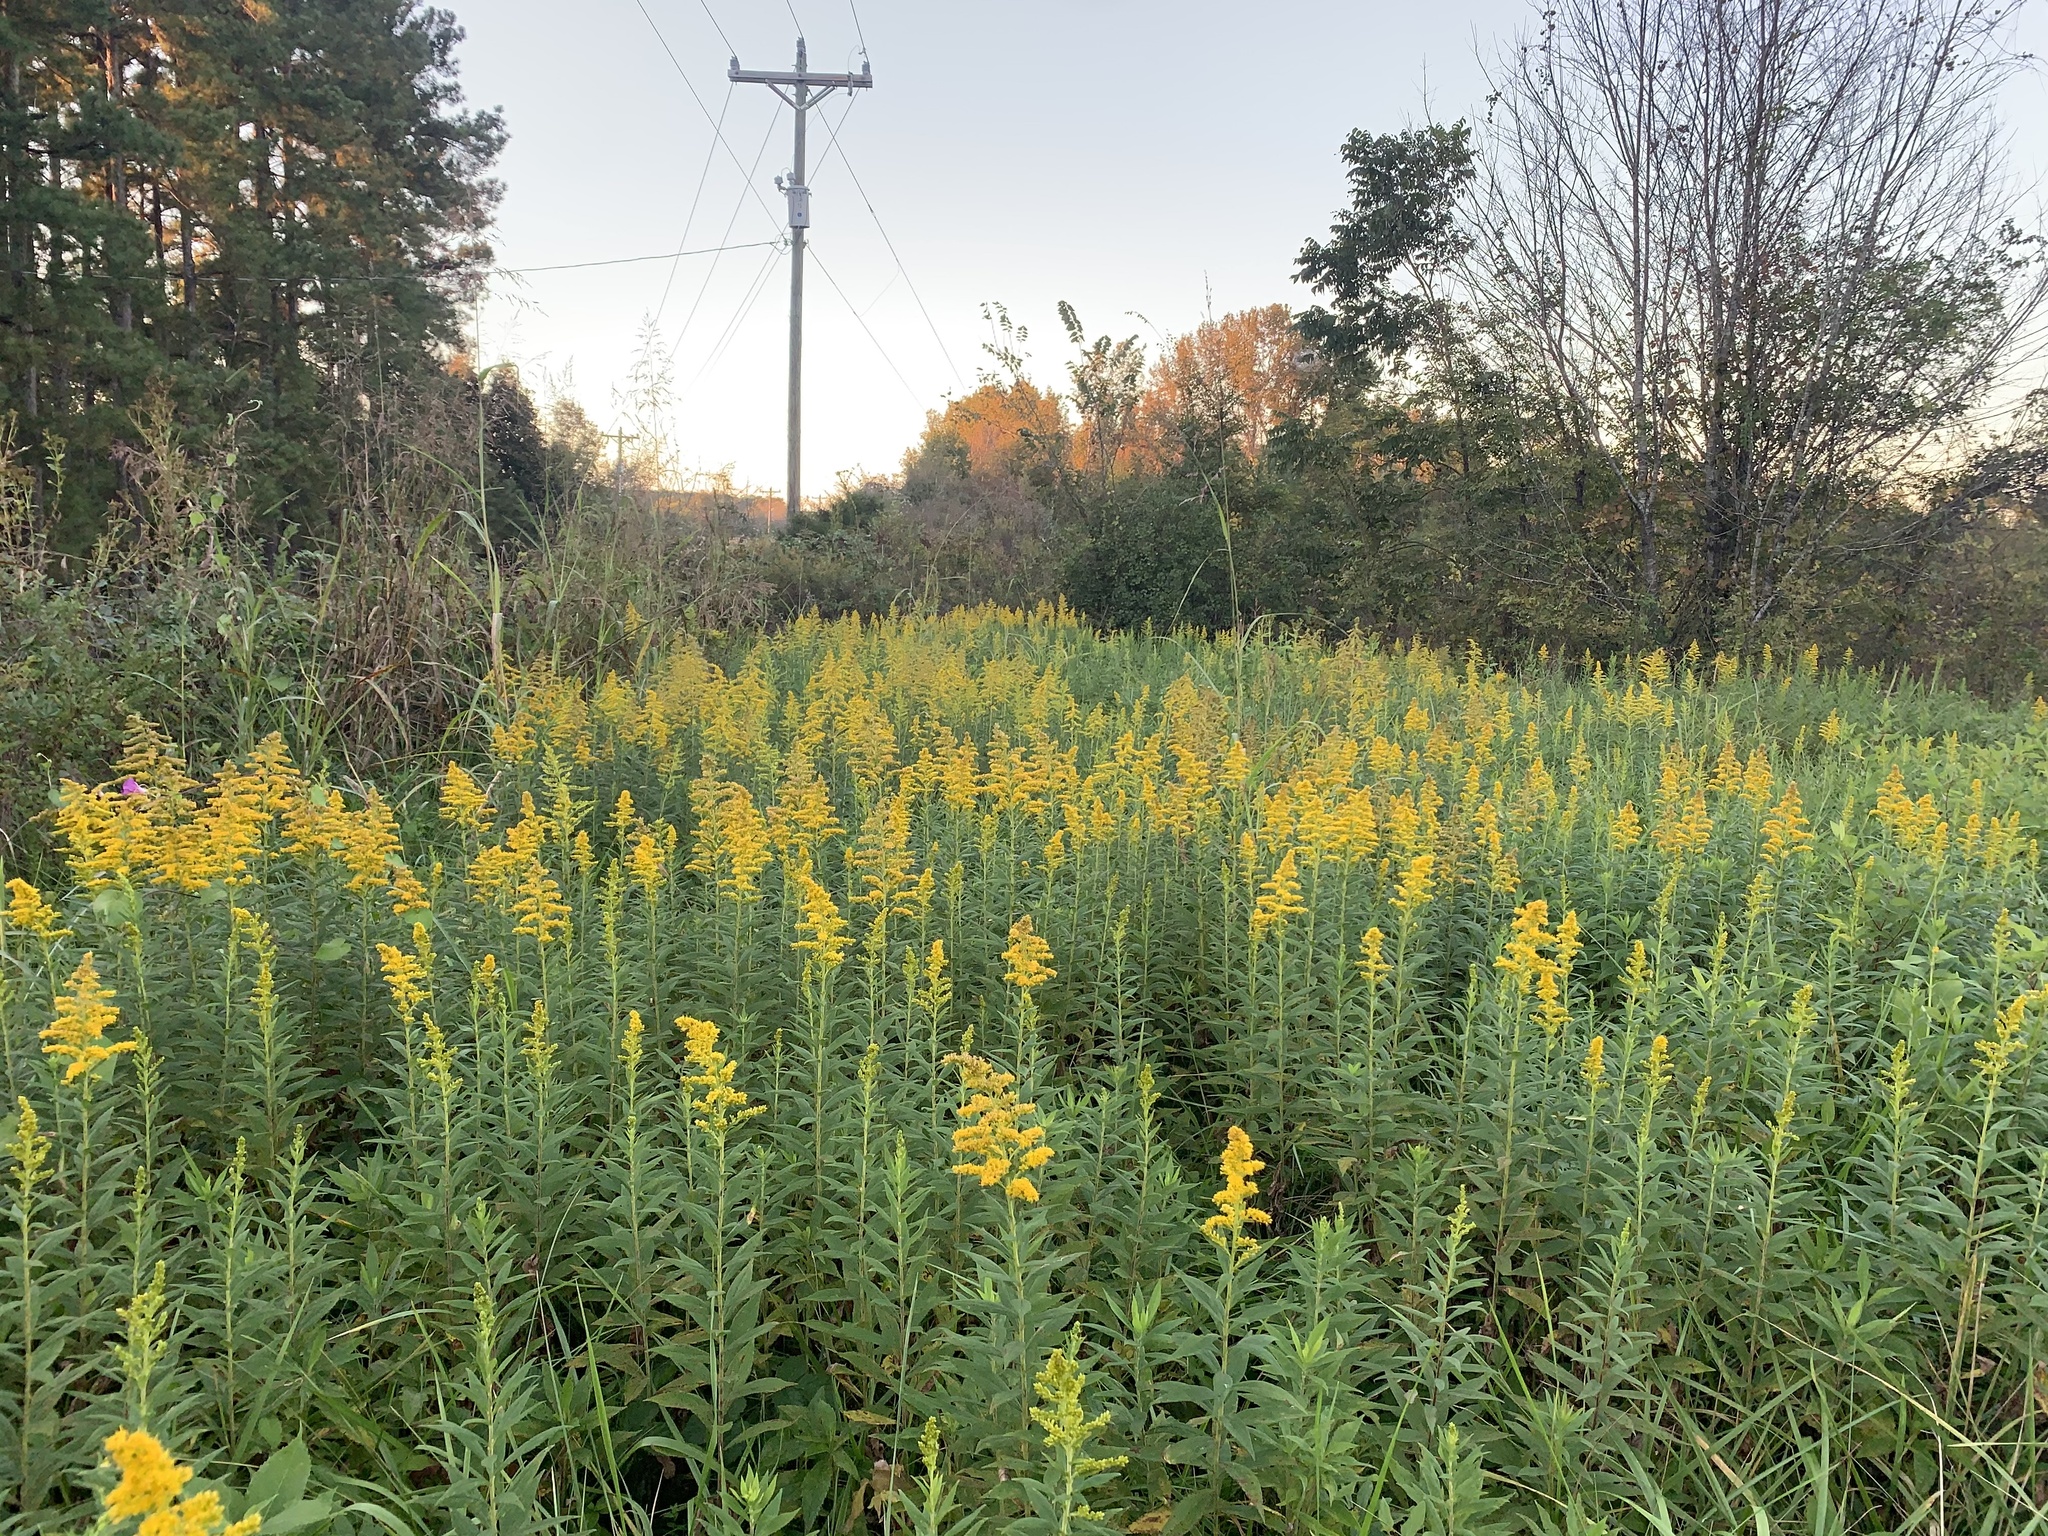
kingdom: Plantae
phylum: Tracheophyta
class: Magnoliopsida
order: Asterales
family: Asteraceae
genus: Solidago
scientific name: Solidago altissima
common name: Late goldenrod
